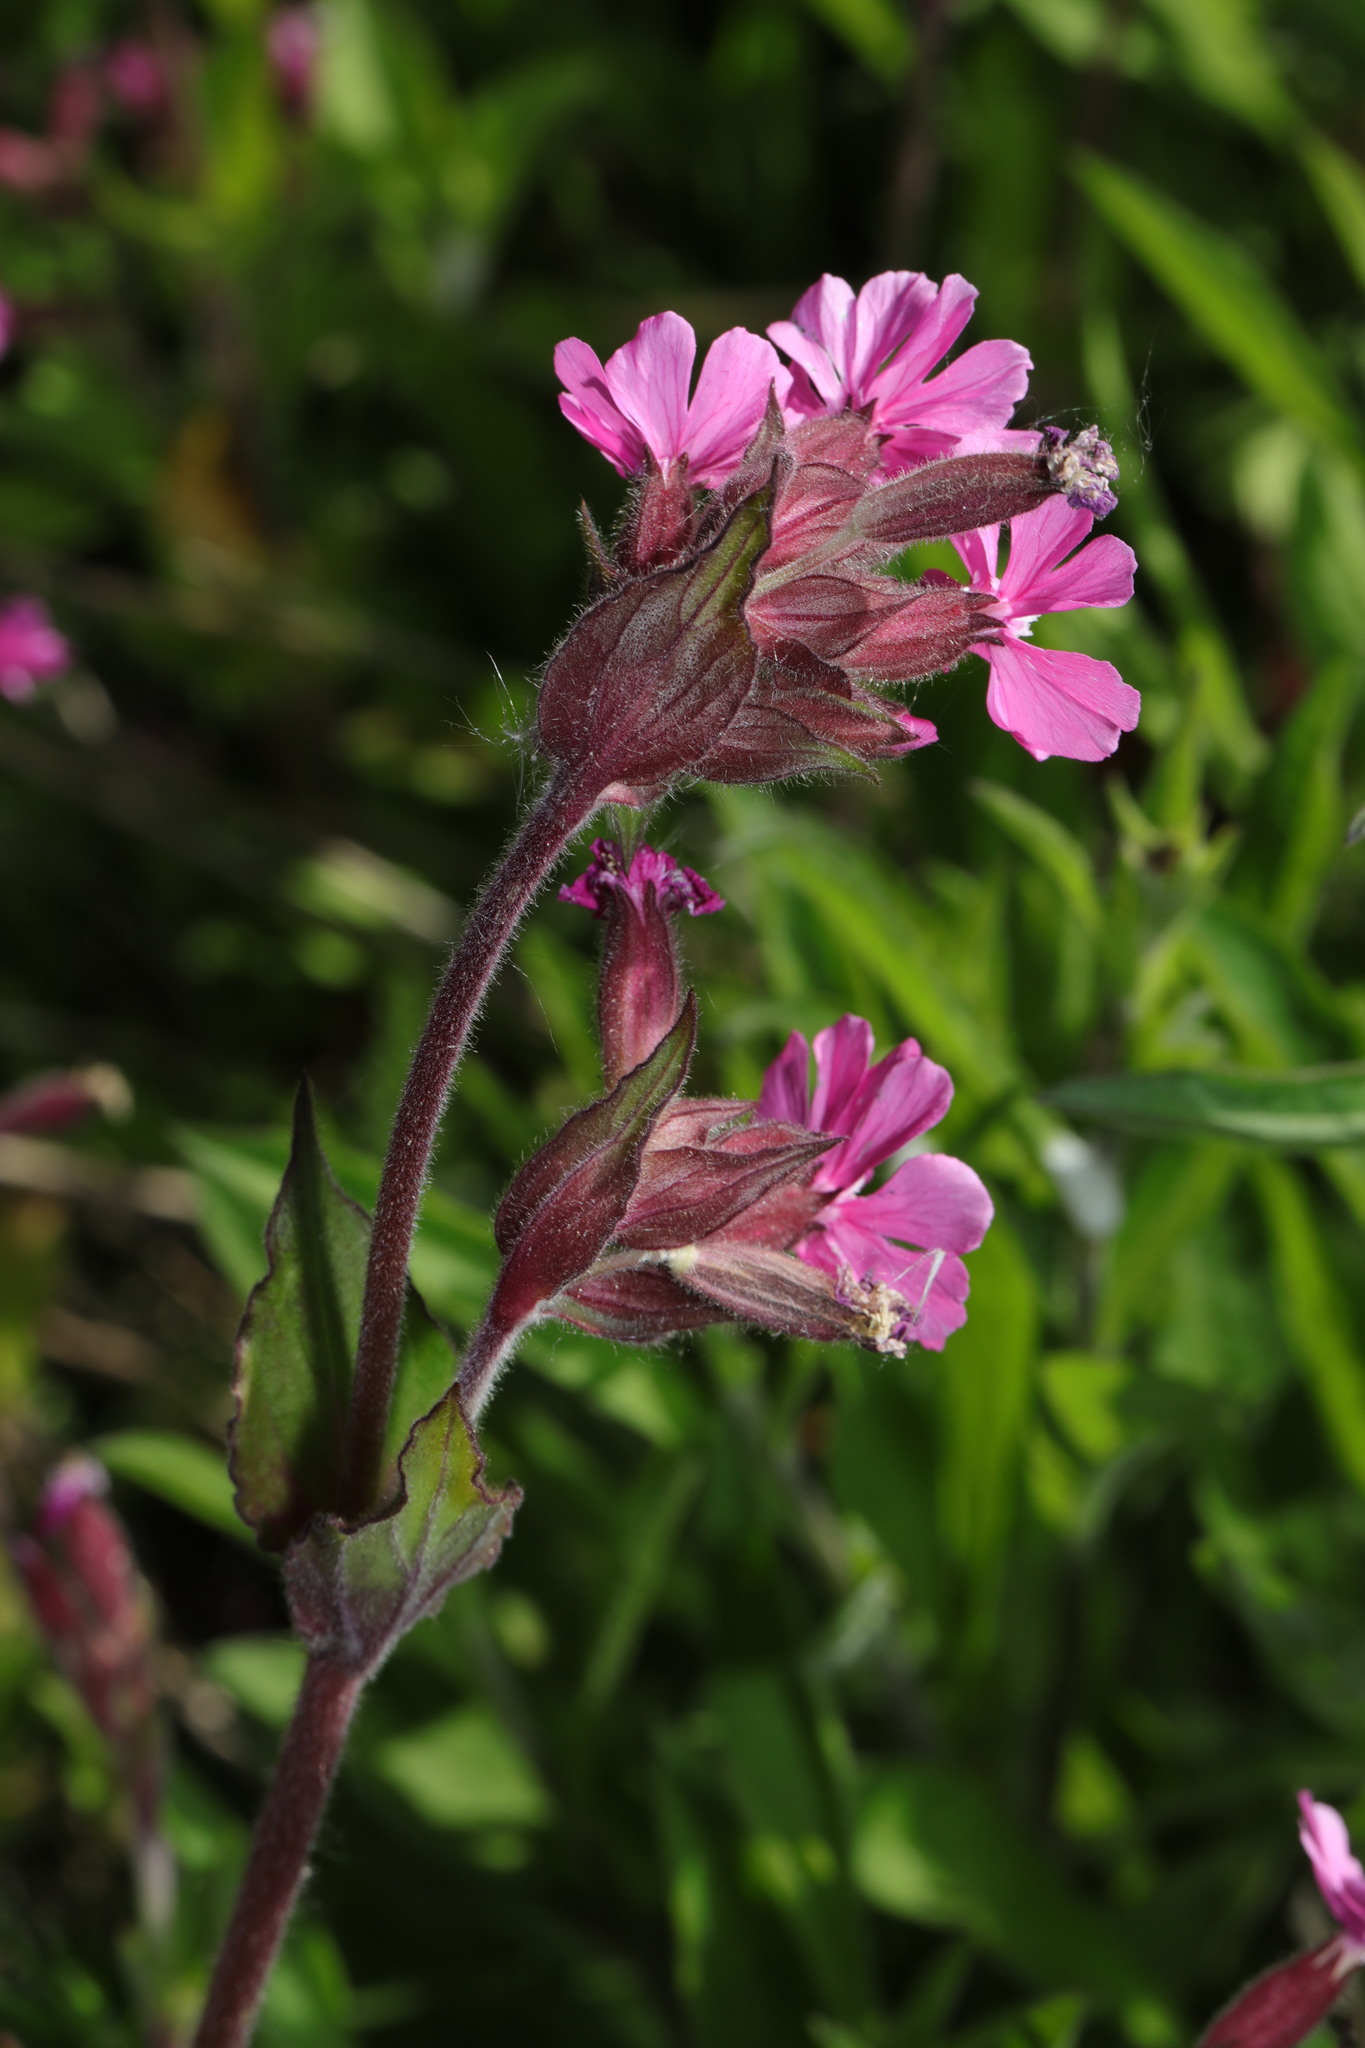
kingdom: Plantae
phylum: Tracheophyta
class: Magnoliopsida
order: Caryophyllales
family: Caryophyllaceae
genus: Silene
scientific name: Silene dioica
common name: Red campion
